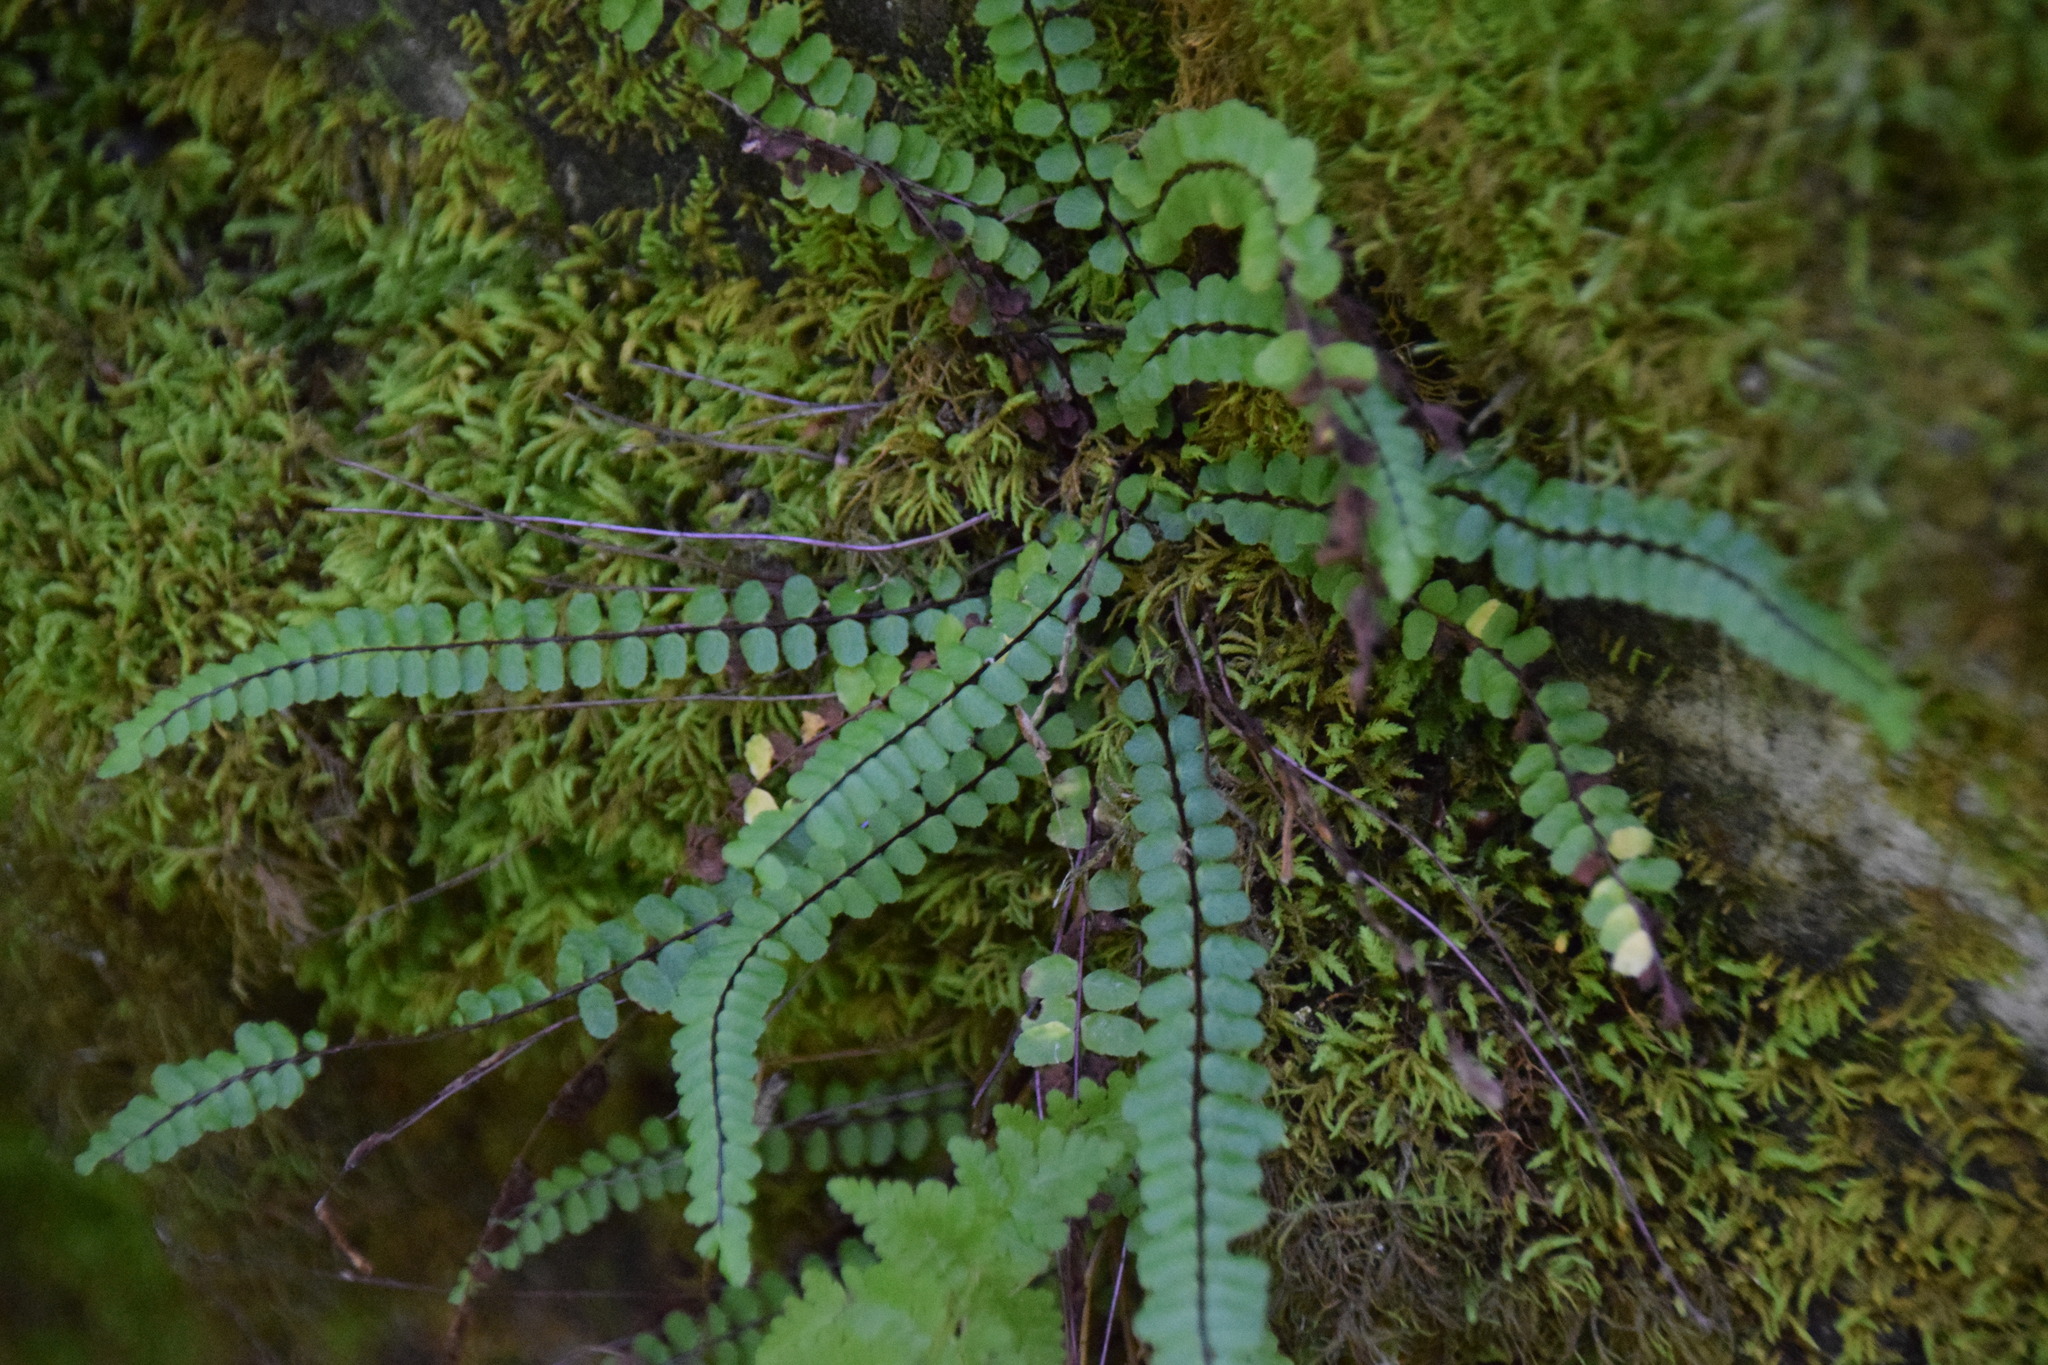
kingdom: Plantae
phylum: Tracheophyta
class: Polypodiopsida
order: Polypodiales
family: Aspleniaceae
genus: Asplenium
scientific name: Asplenium trichomanes
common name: Maidenhair spleenwort
